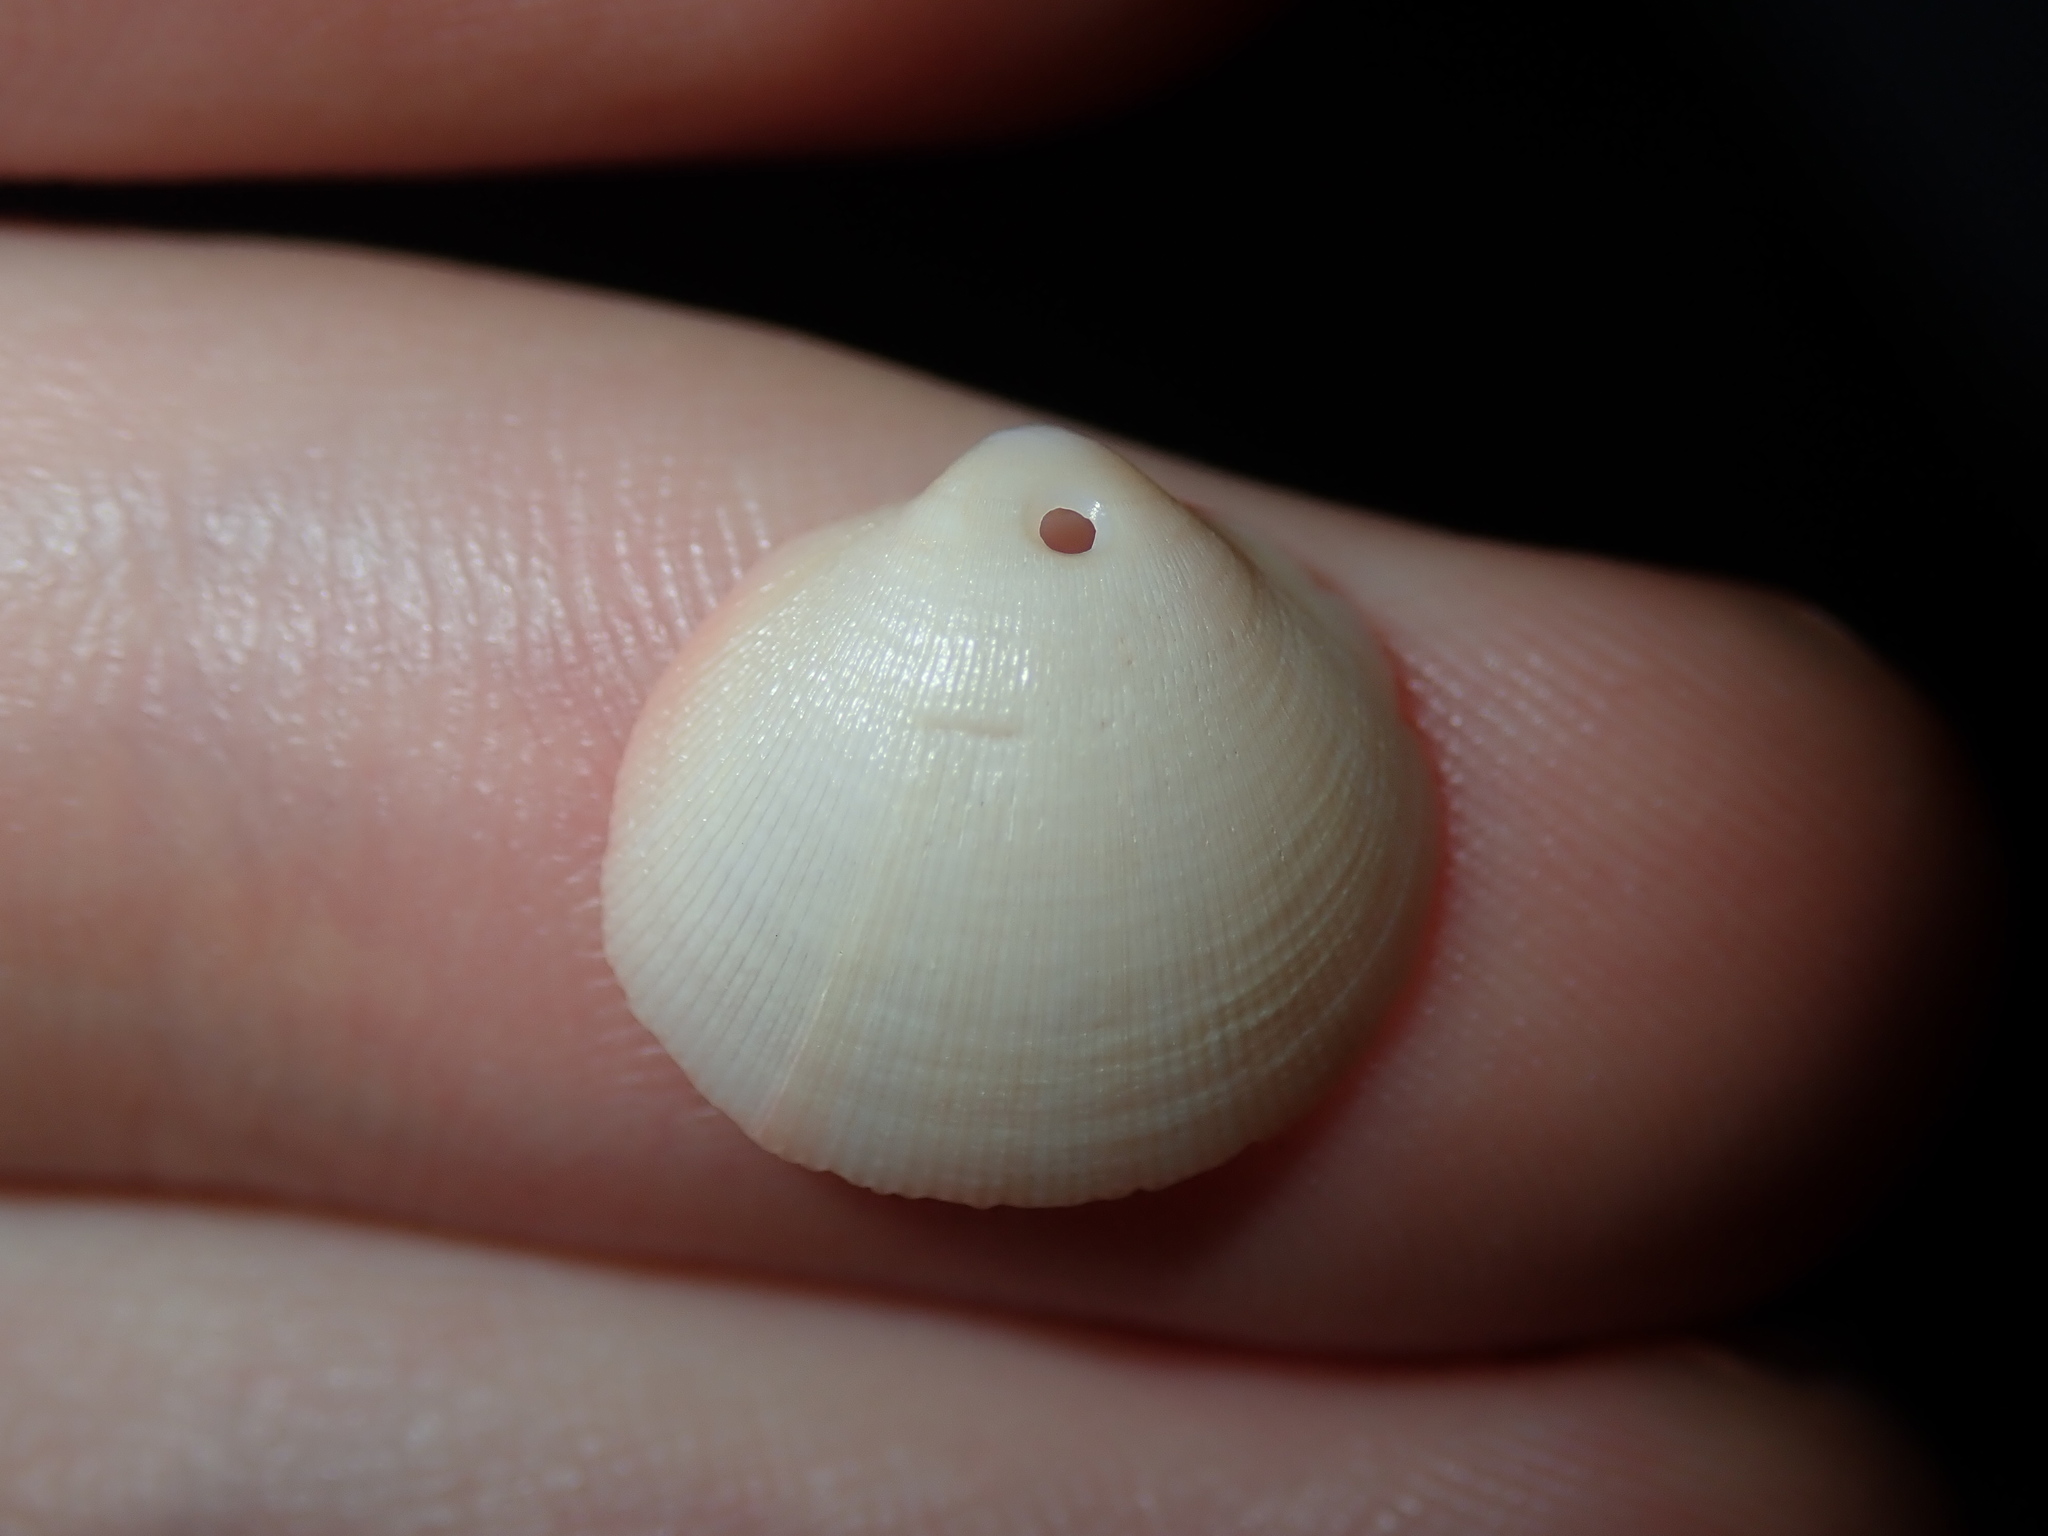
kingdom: Animalia
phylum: Mollusca
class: Bivalvia
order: Cardiida
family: Cardiidae
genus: Pratulum
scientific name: Pratulum thetidis
